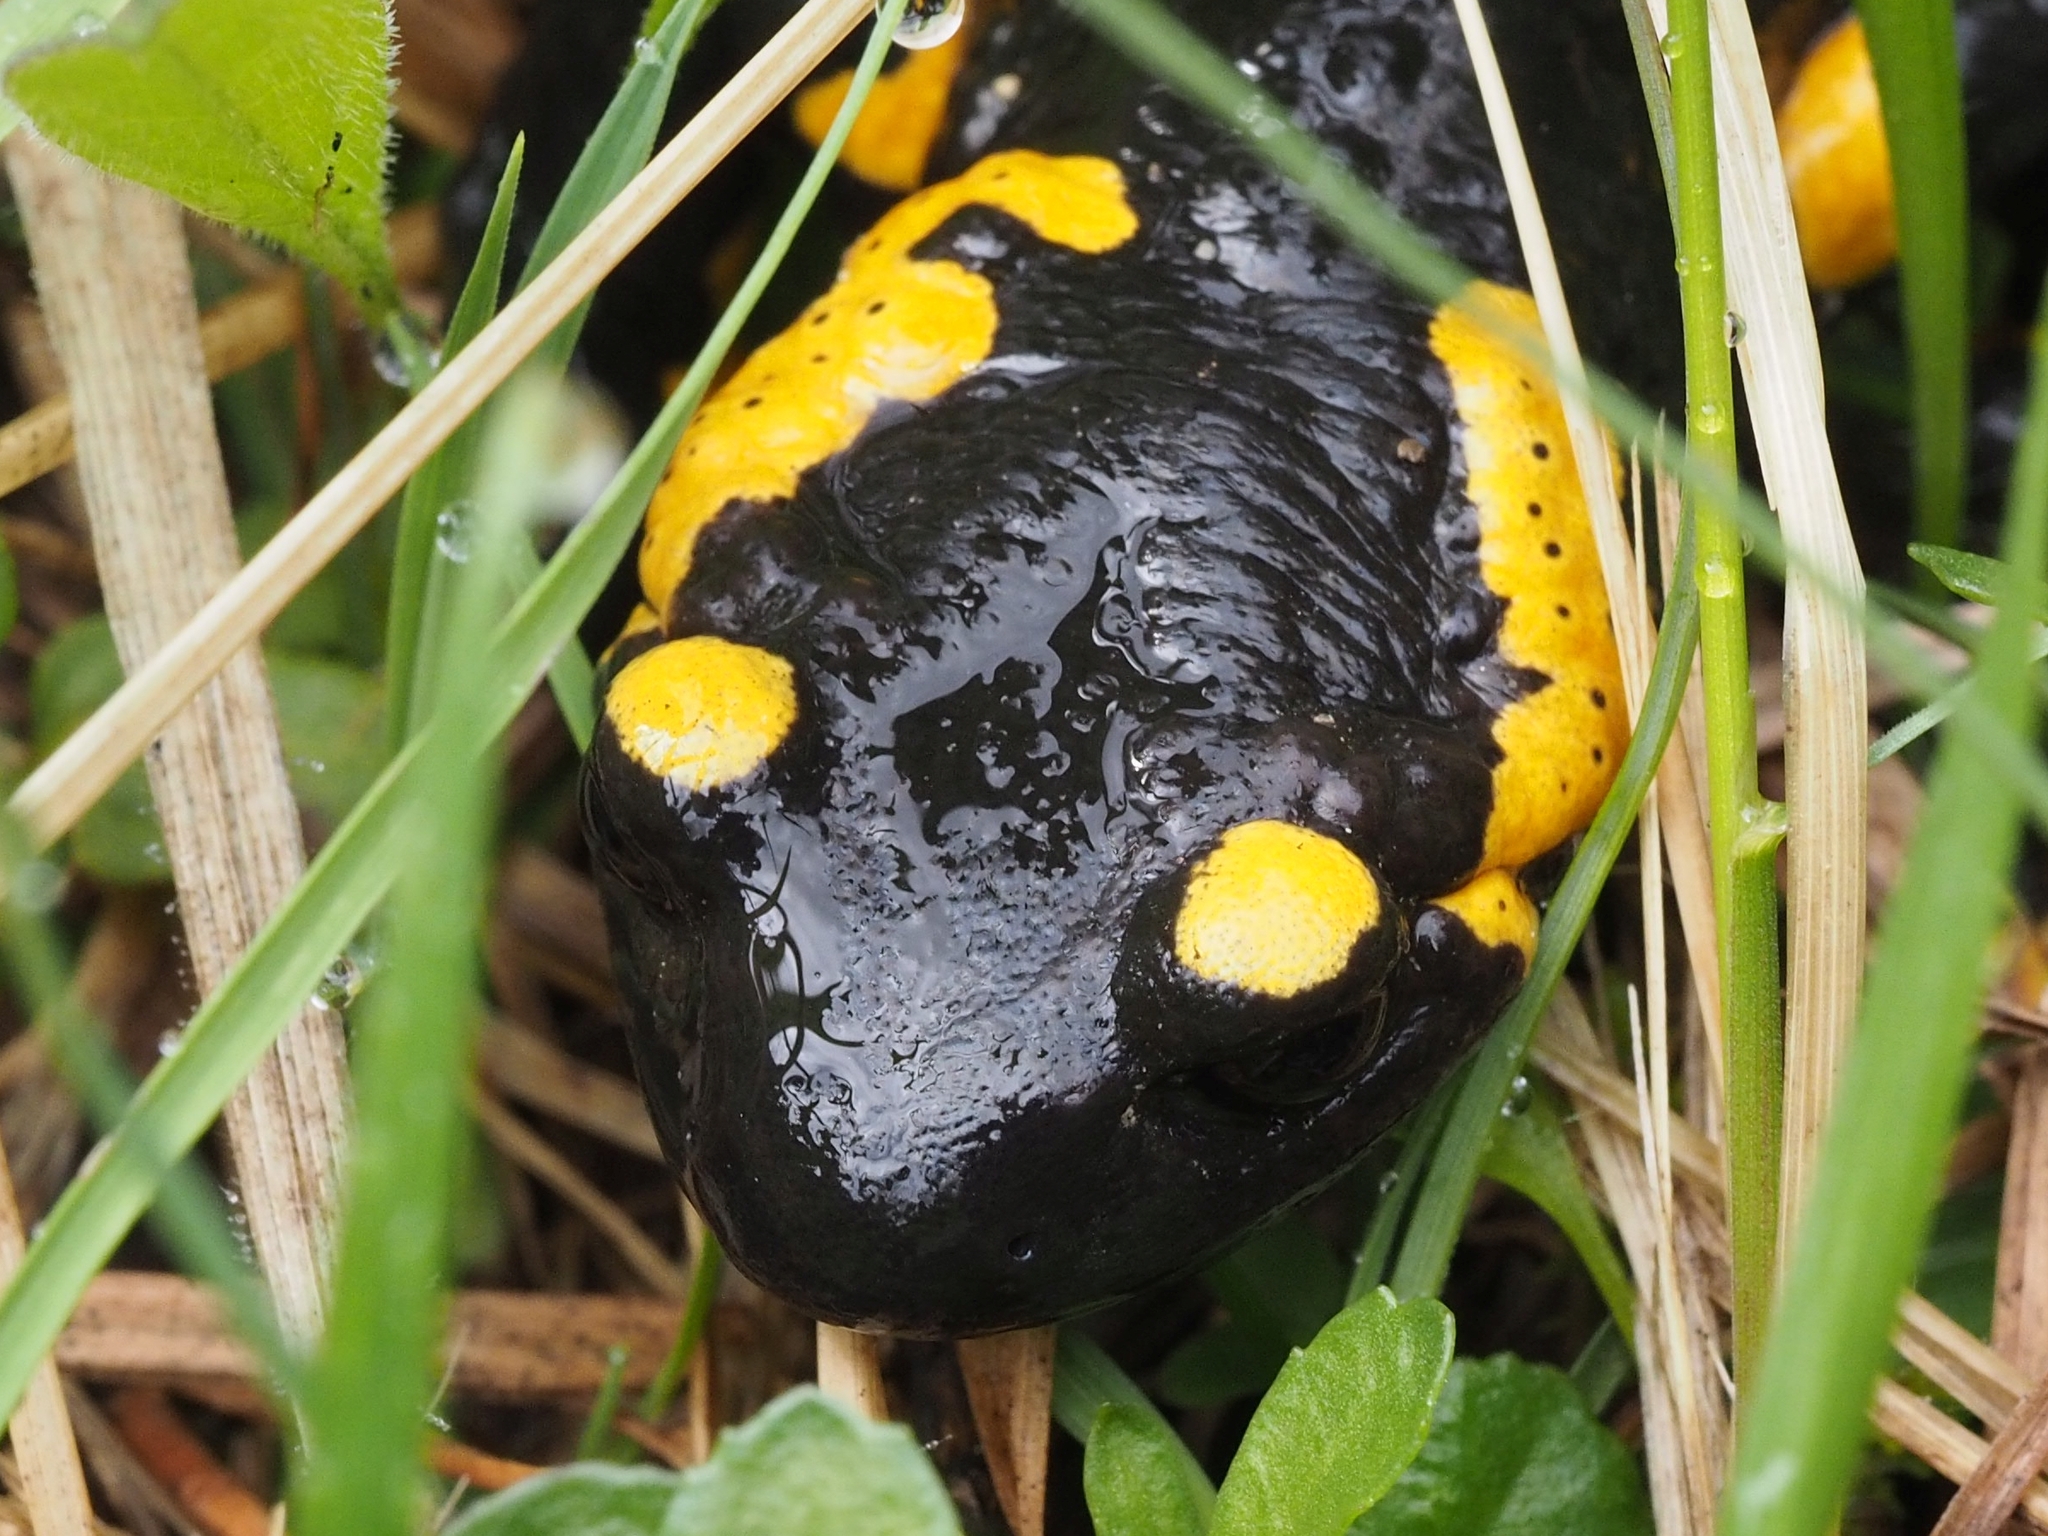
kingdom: Animalia
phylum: Chordata
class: Amphibia
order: Caudata
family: Salamandridae
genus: Salamandra
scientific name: Salamandra salamandra
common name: Fire salamander
